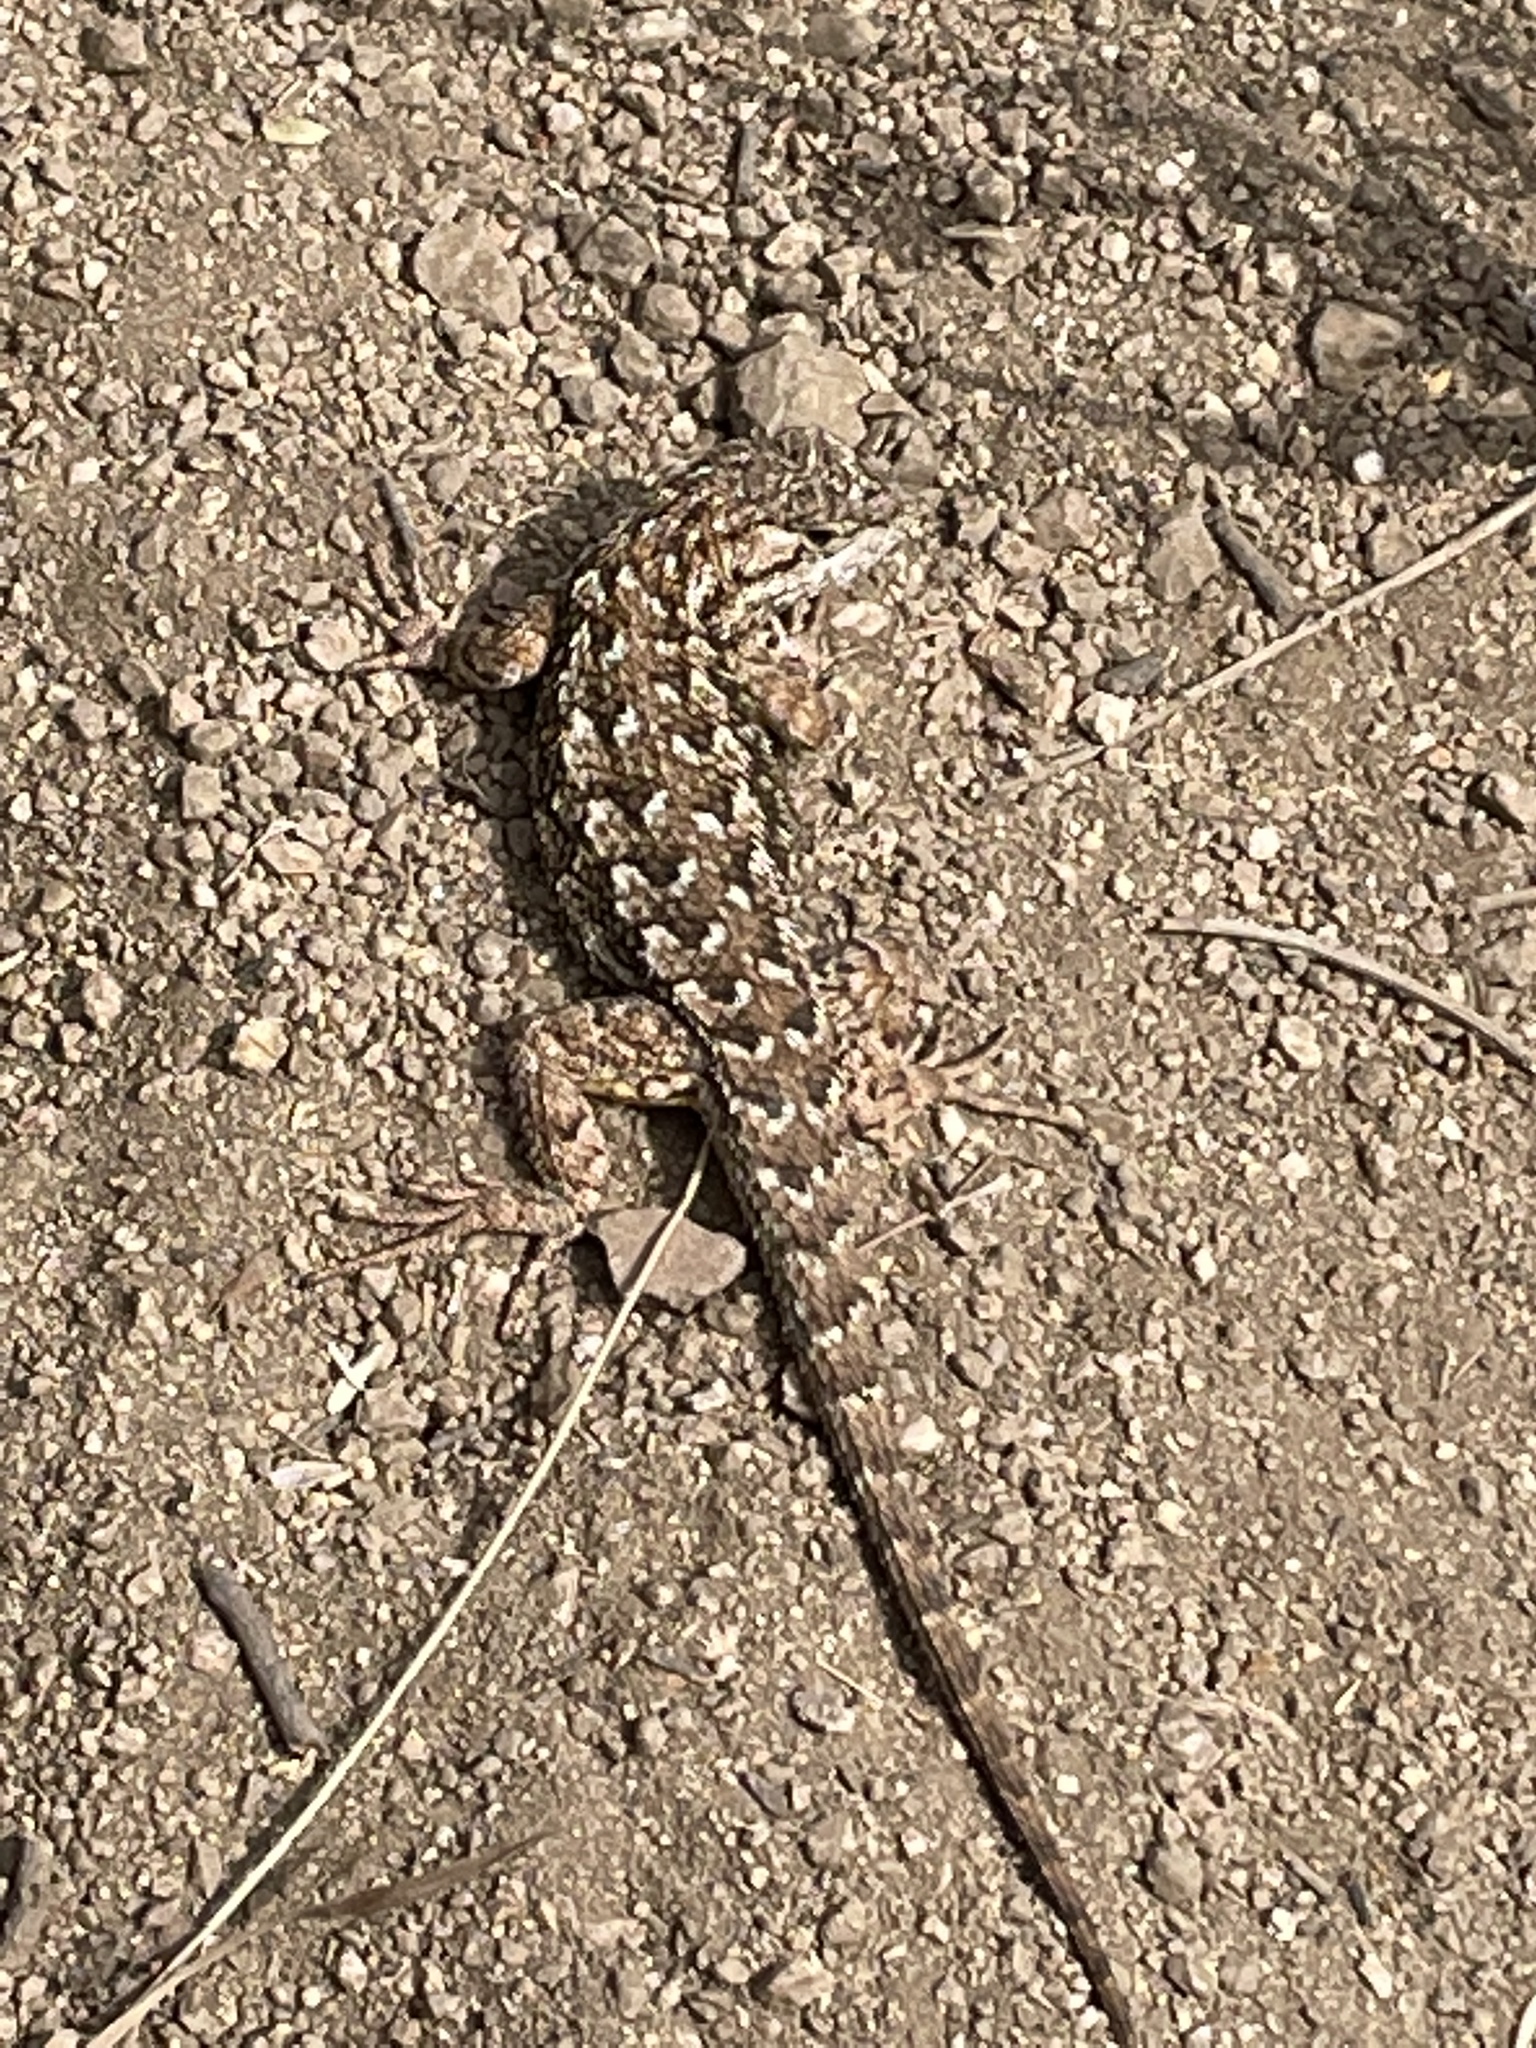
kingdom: Animalia
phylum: Chordata
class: Squamata
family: Phrynosomatidae
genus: Sceloporus
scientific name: Sceloporus occidentalis
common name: Western fence lizard
